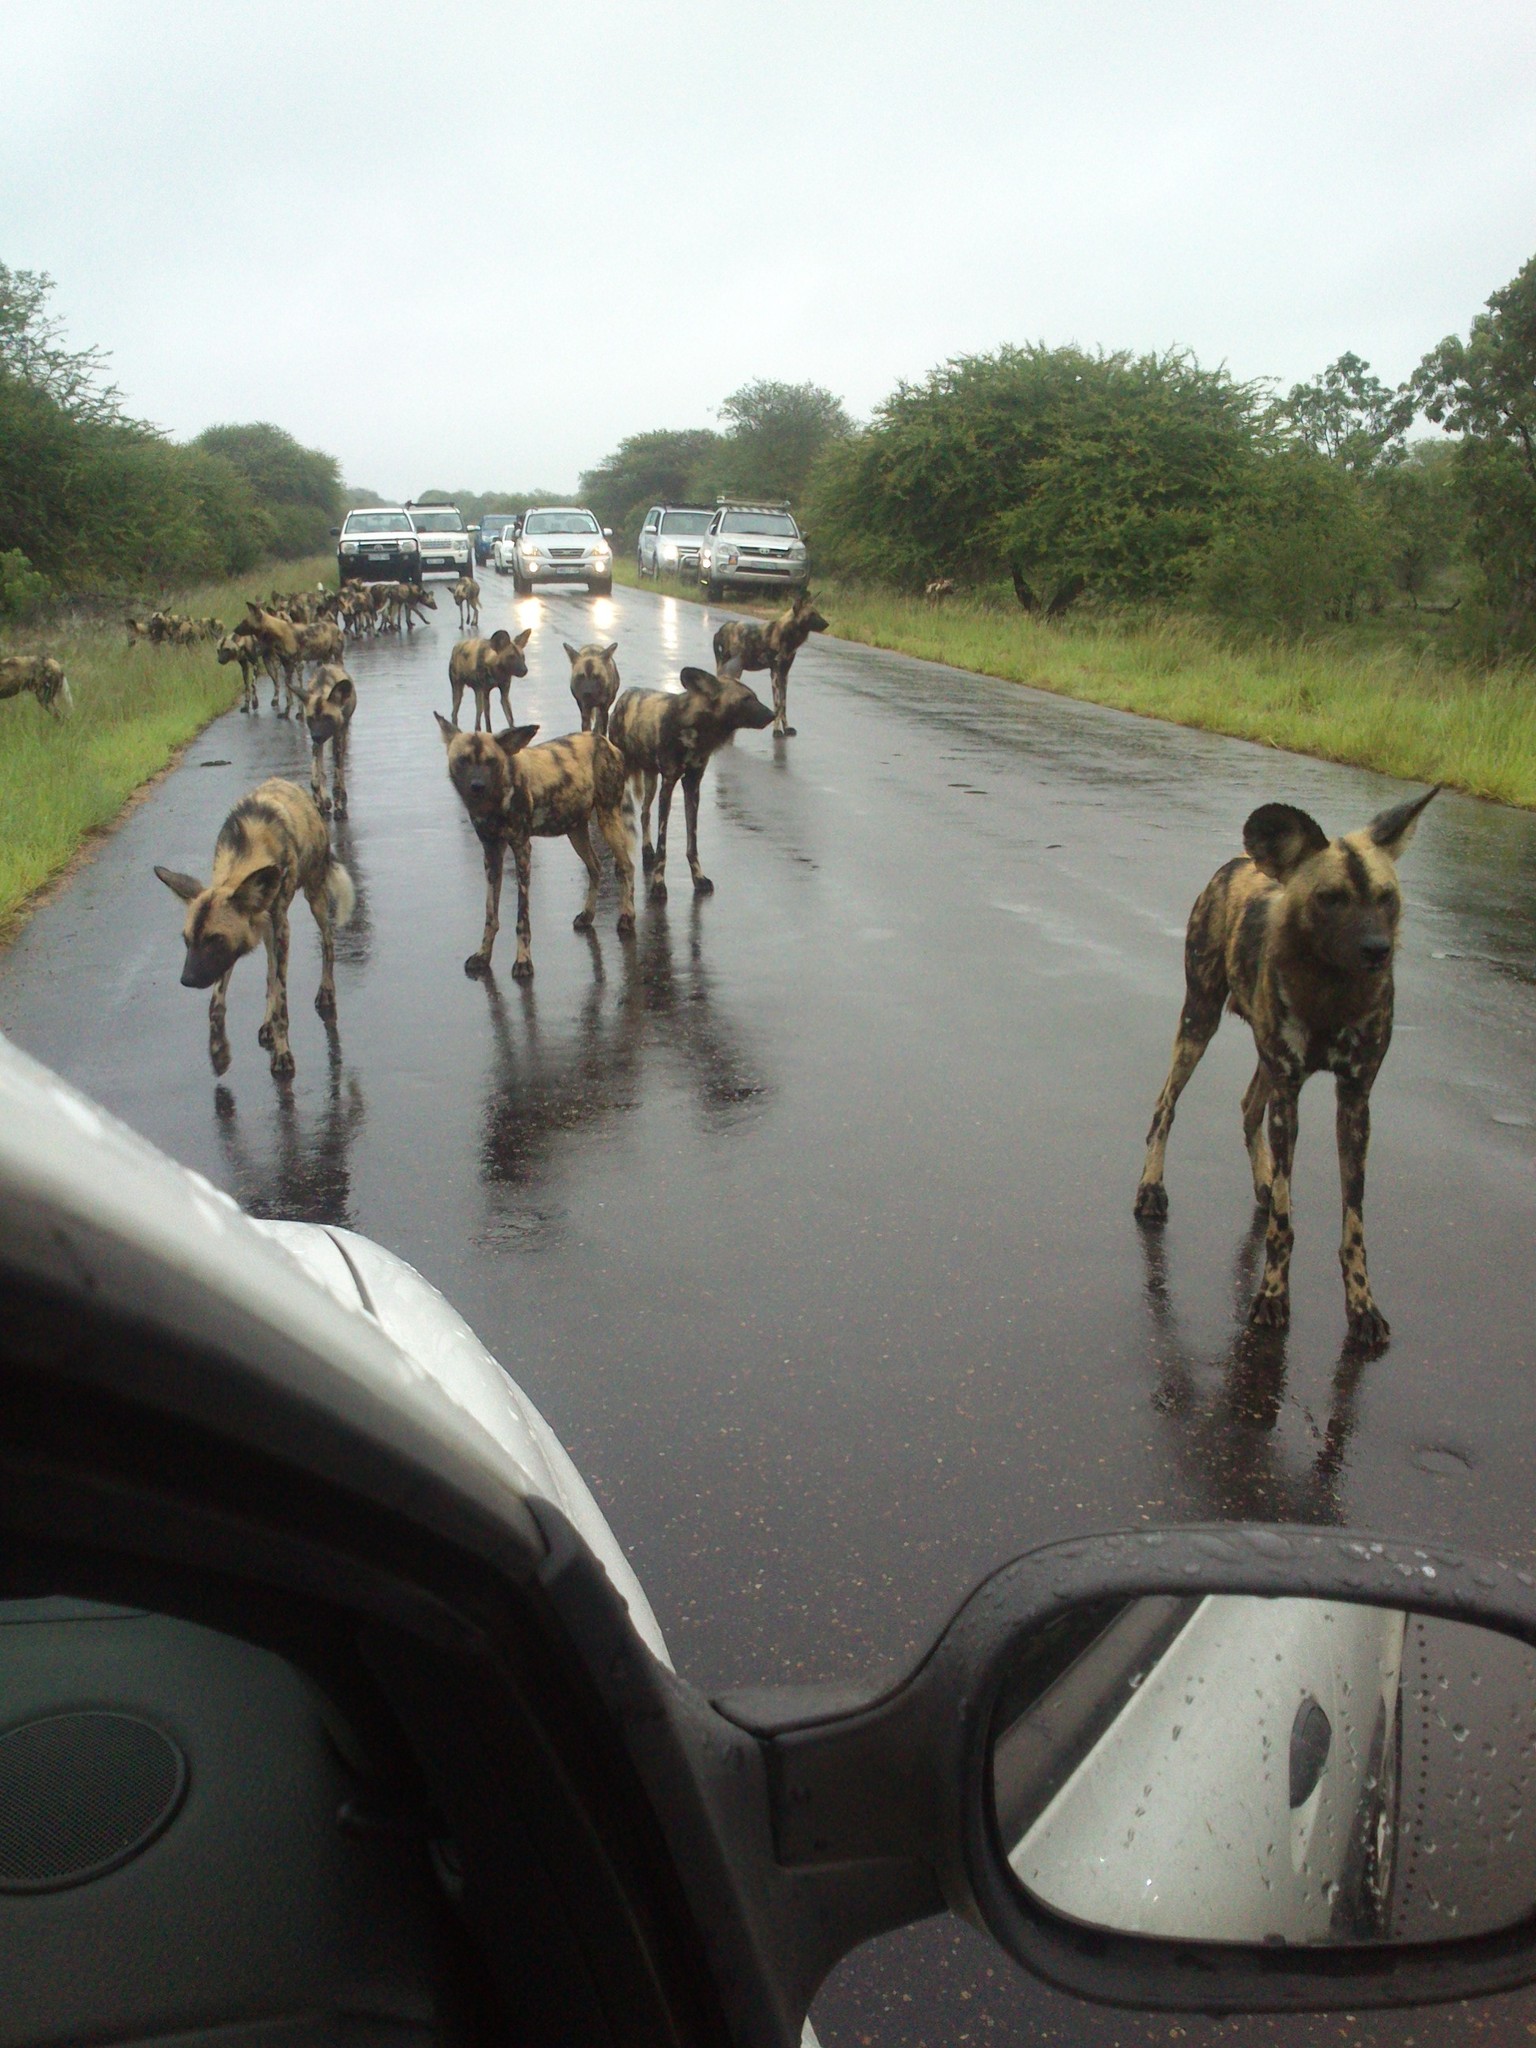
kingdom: Animalia
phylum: Chordata
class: Mammalia
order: Carnivora
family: Canidae
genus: Lycaon
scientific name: Lycaon pictus
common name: African wild dog
